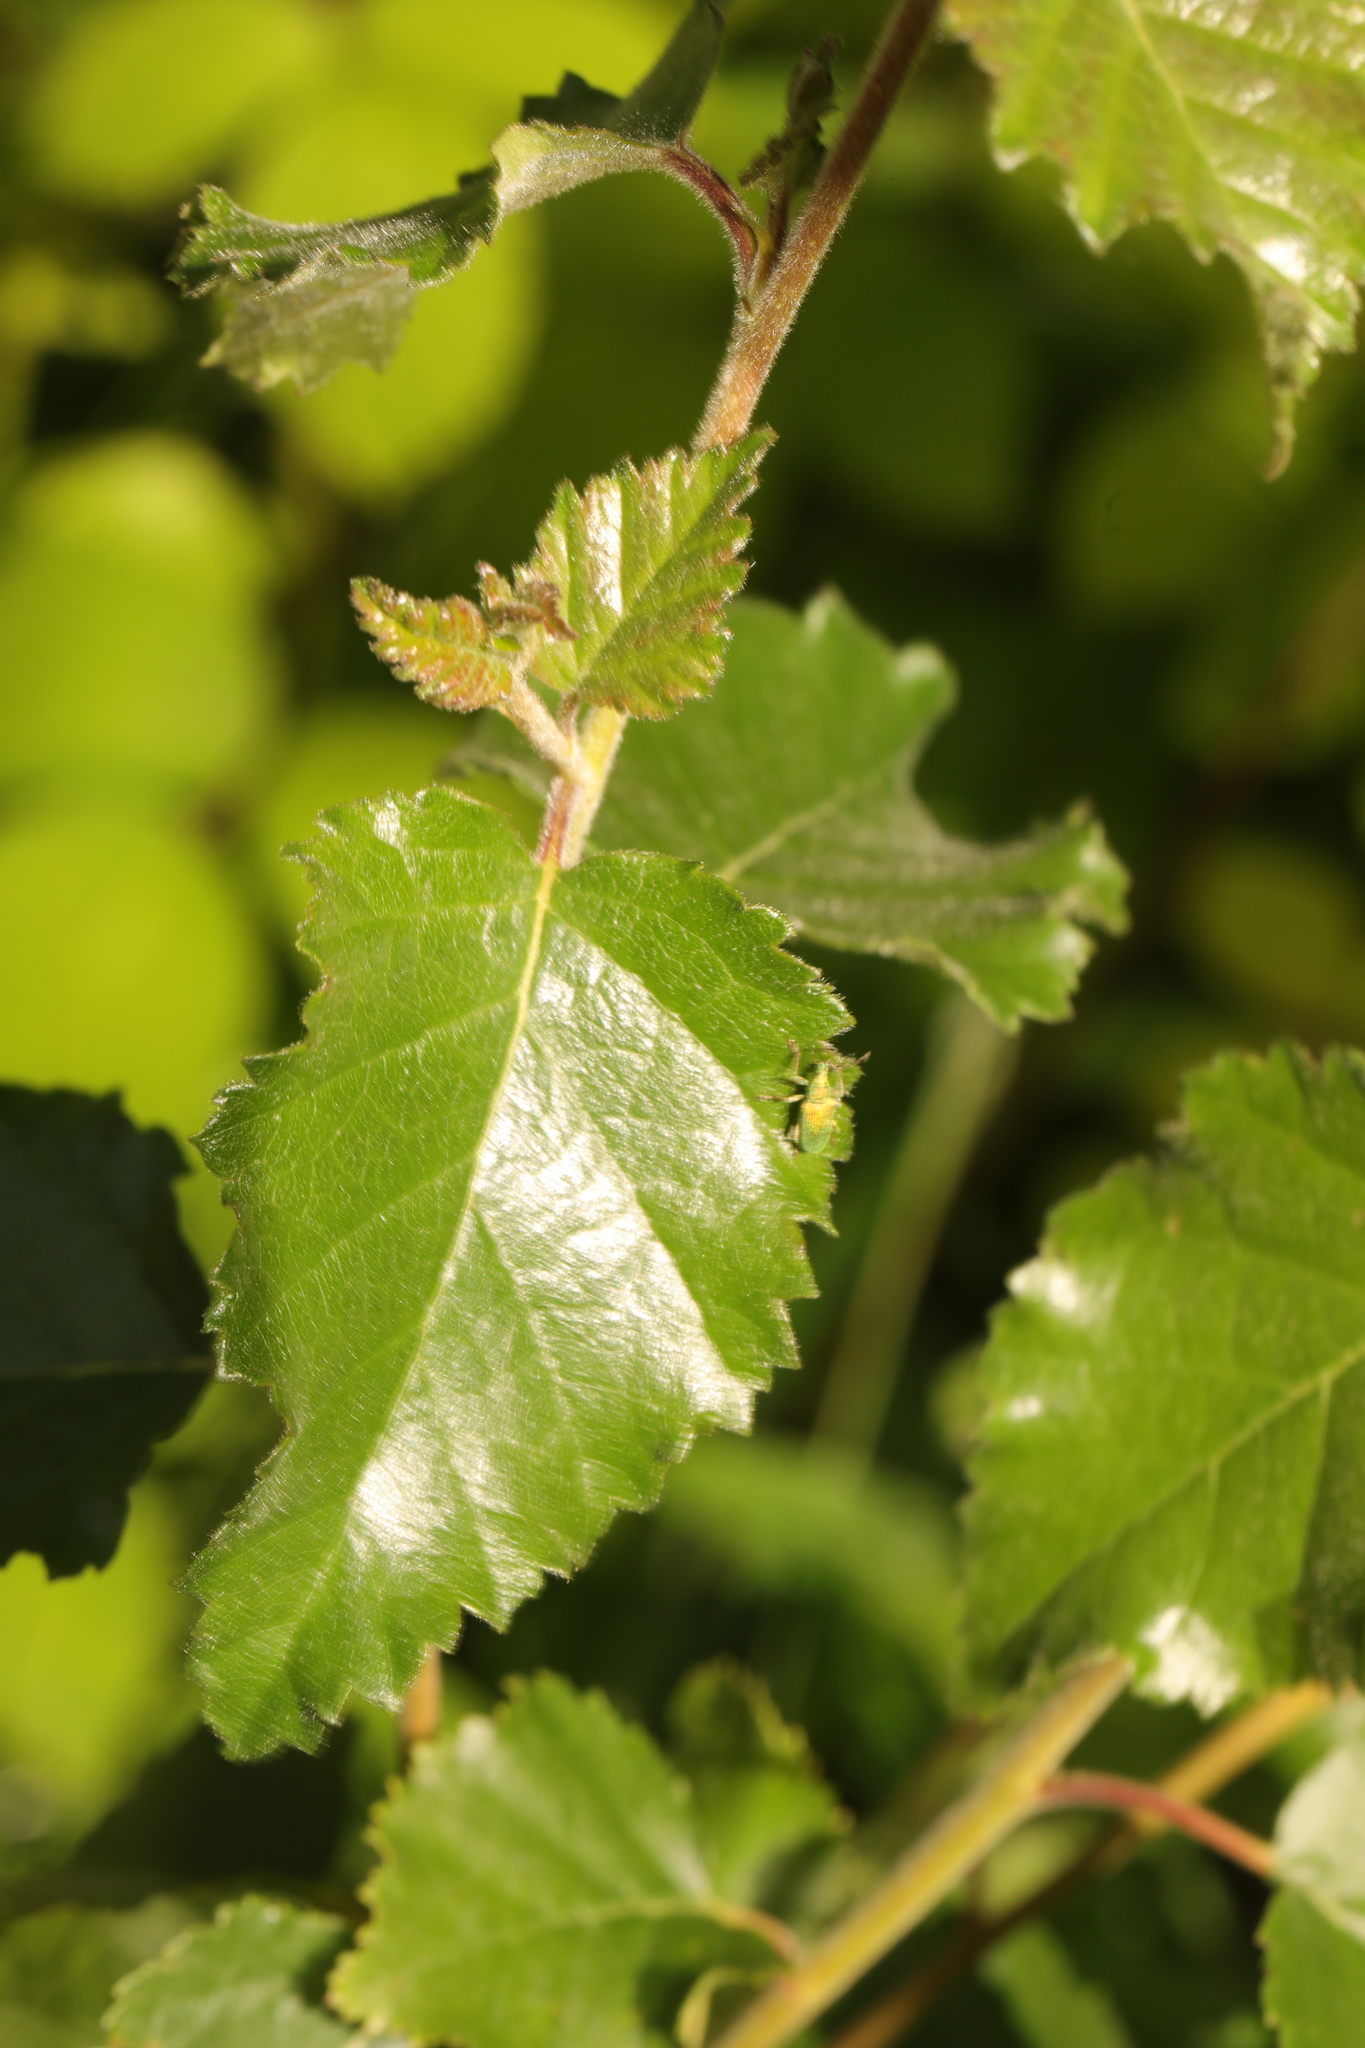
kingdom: Plantae
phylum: Tracheophyta
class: Magnoliopsida
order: Fagales
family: Betulaceae
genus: Betula
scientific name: Betula pubescens
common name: Downy birch
